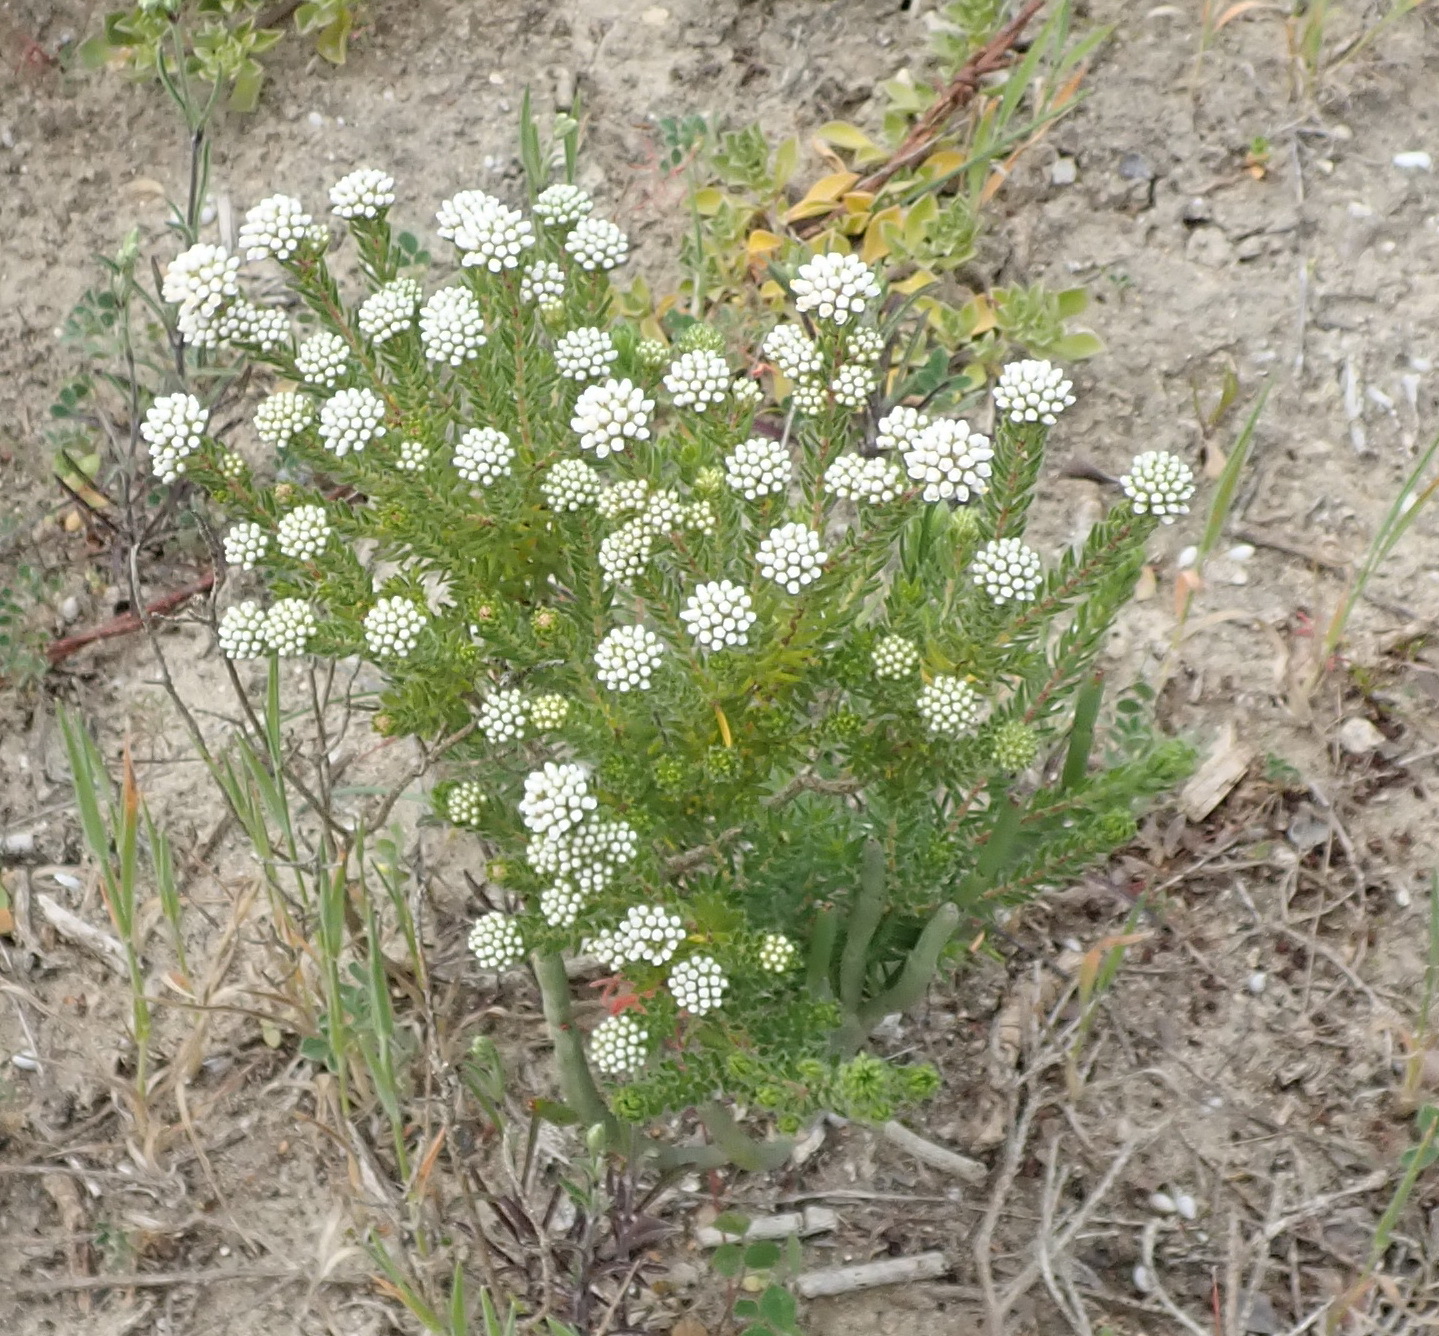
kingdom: Plantae
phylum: Tracheophyta
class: Magnoliopsida
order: Sapindales
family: Rutaceae
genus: Agathosma
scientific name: Agathosma serpyllacea
